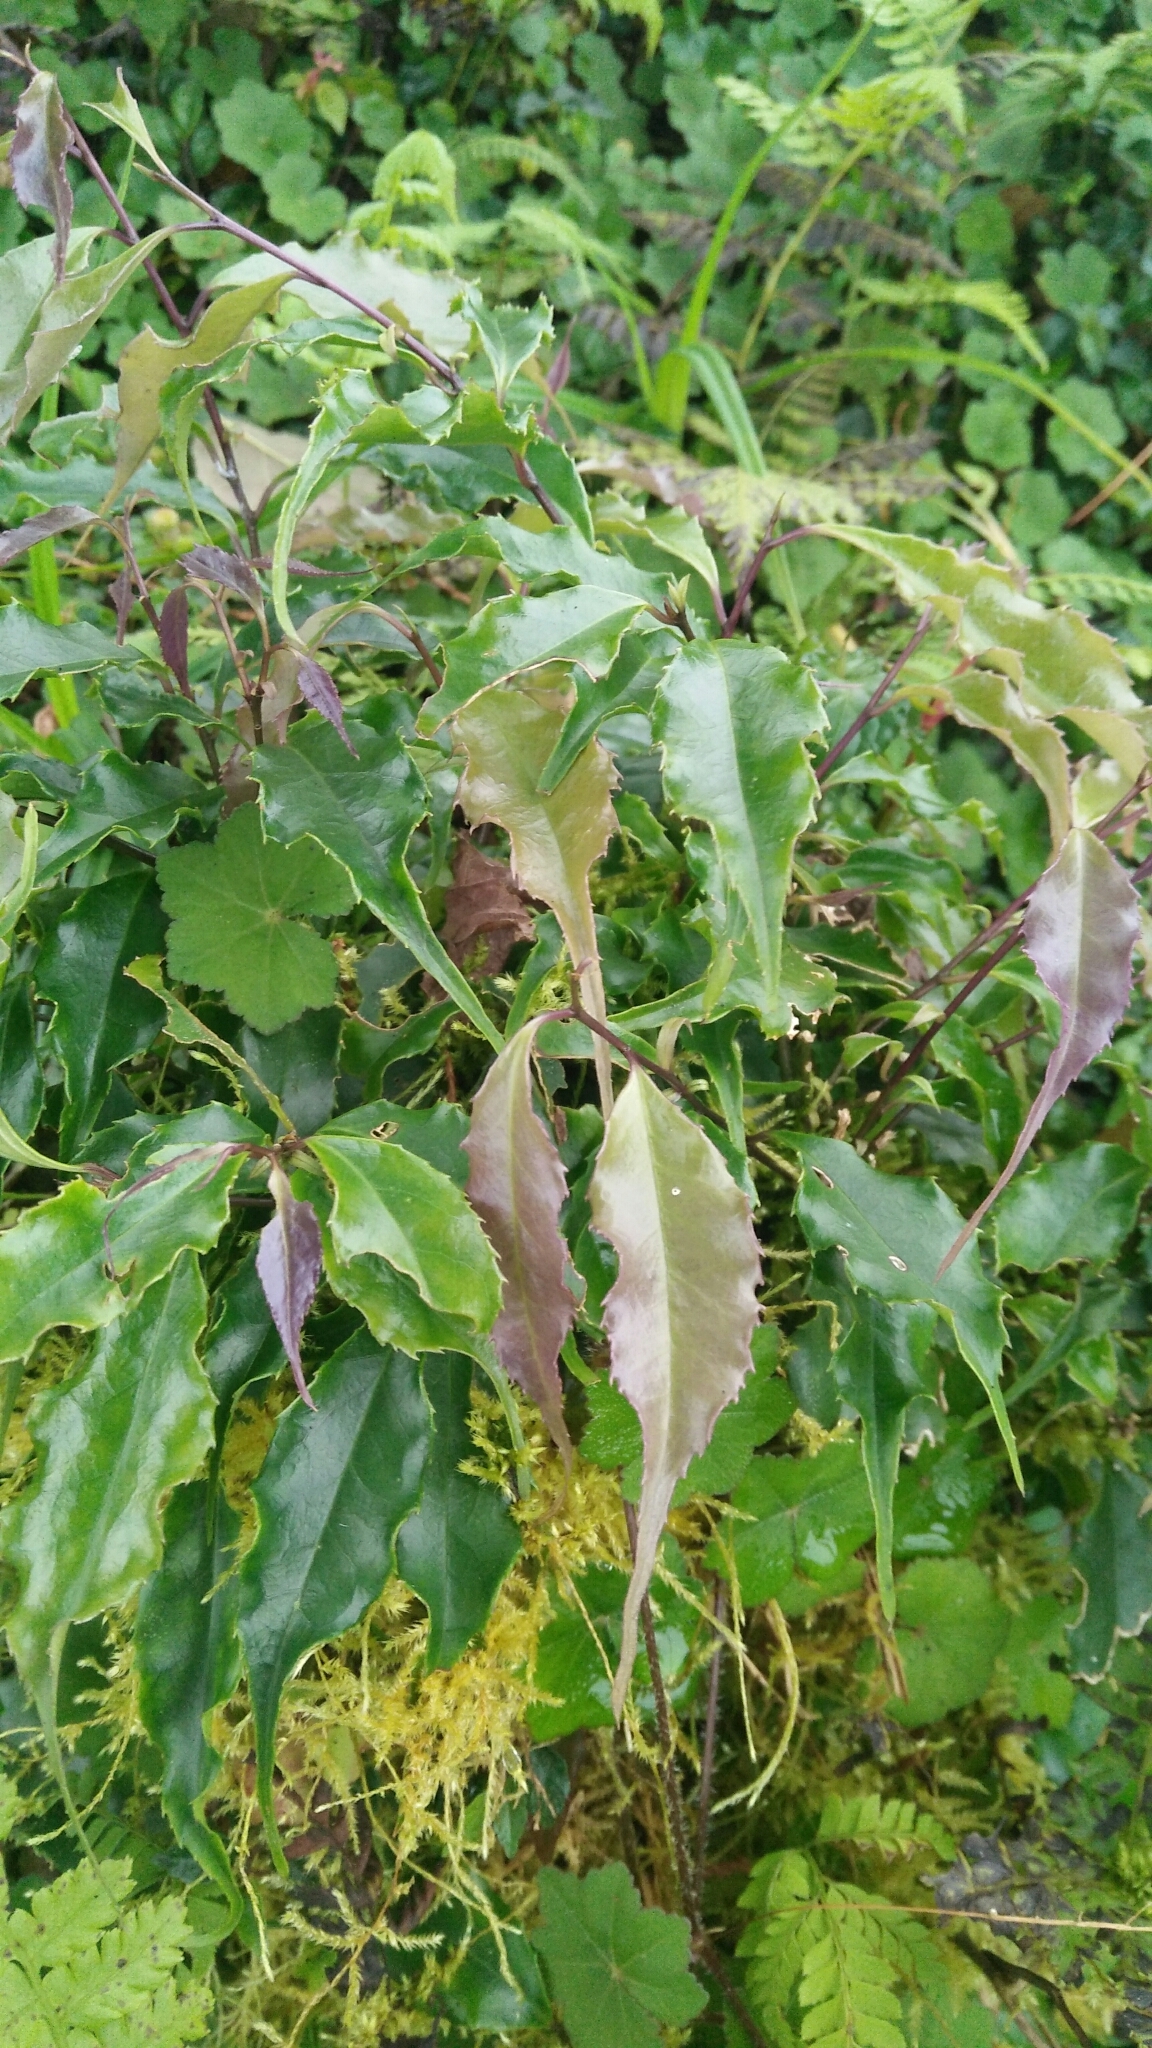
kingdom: Plantae
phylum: Tracheophyta
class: Magnoliopsida
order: Ericales
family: Symplocaceae
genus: Symplocos
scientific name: Symplocos sumuntia
